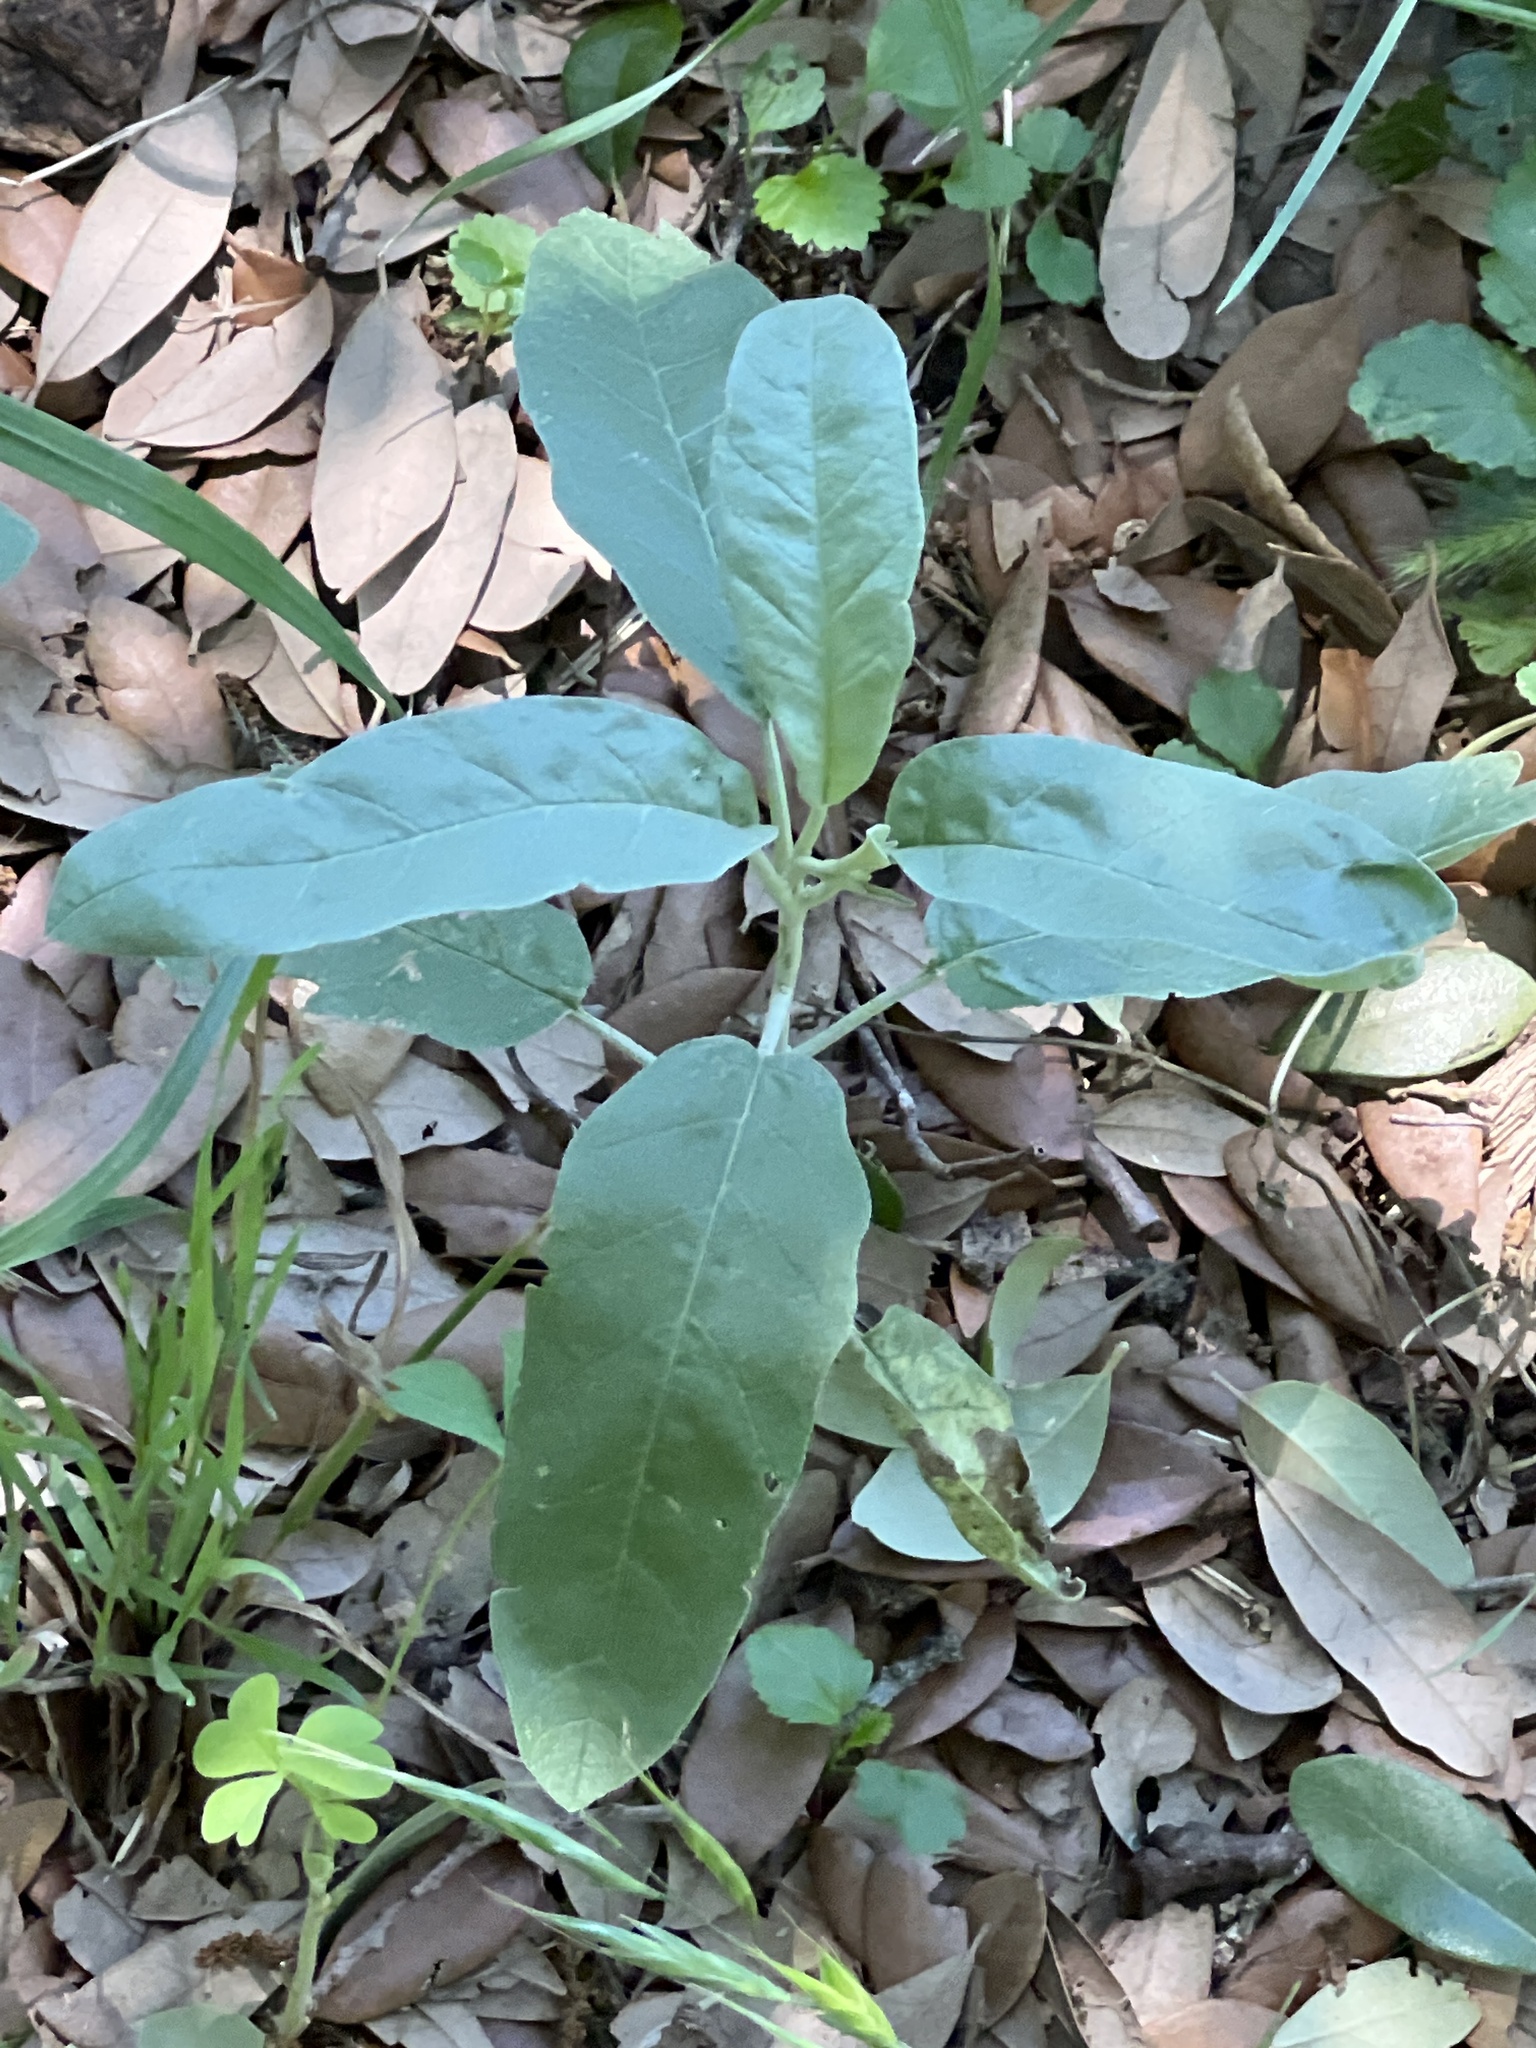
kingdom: Plantae
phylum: Tracheophyta
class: Magnoliopsida
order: Solanales
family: Solanaceae
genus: Solanum
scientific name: Solanum elaeagnifolium
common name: Silverleaf nightshade
